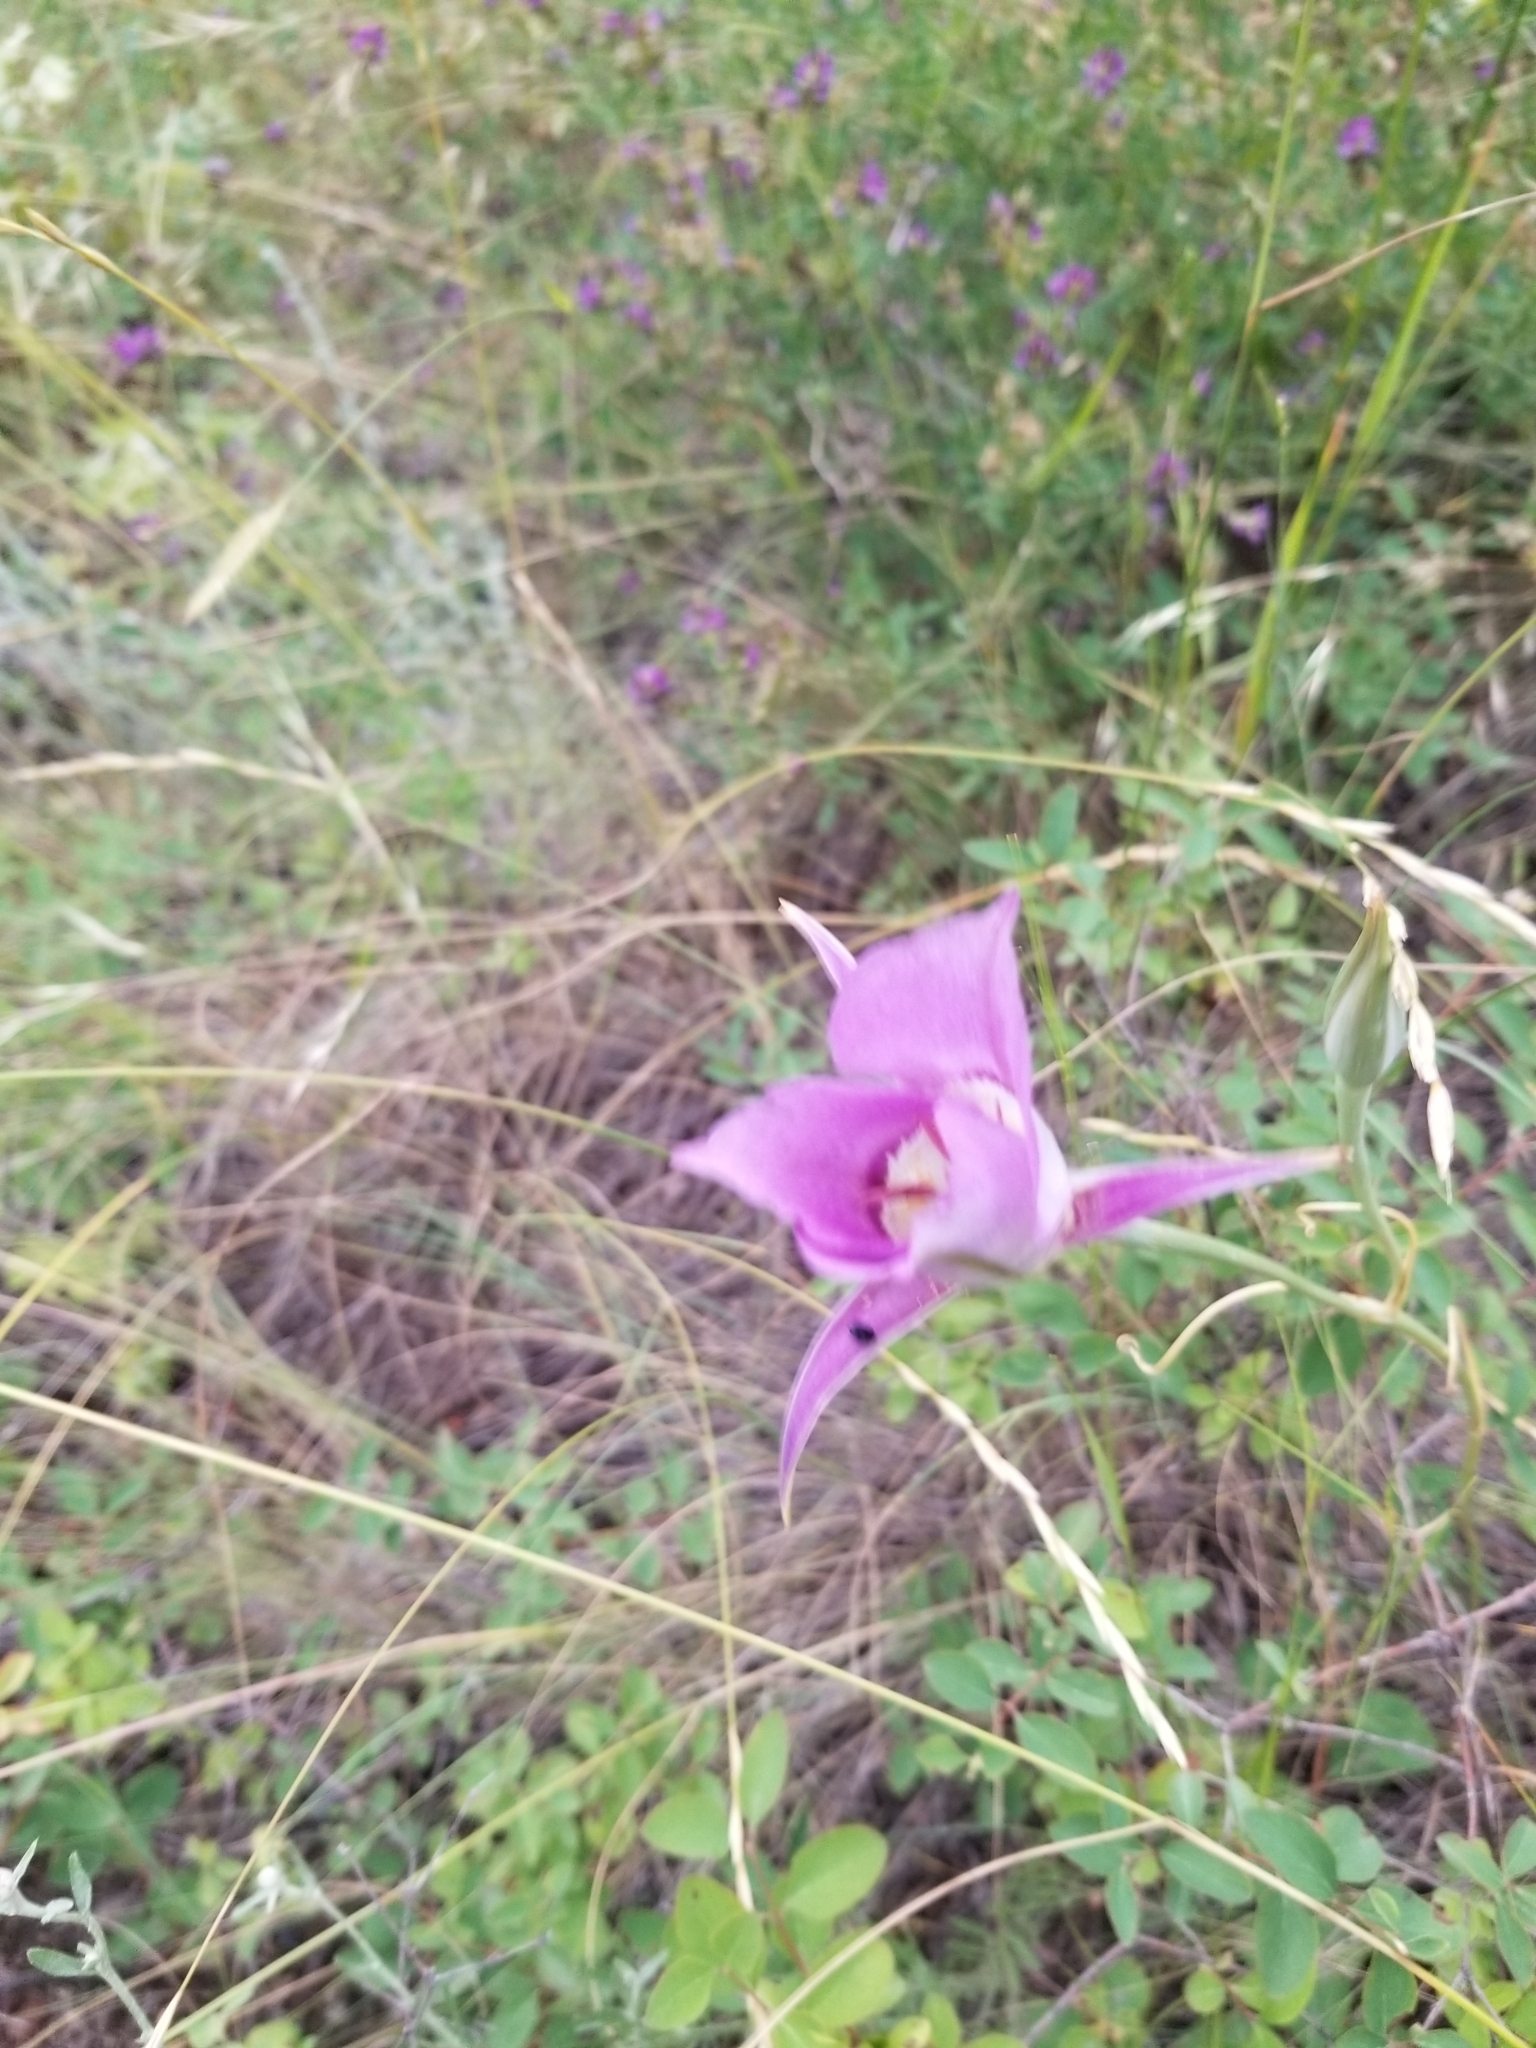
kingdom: Plantae
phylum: Tracheophyta
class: Liliopsida
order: Liliales
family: Liliaceae
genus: Calochortus
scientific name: Calochortus macrocarpus
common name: Green-band mariposa lily
